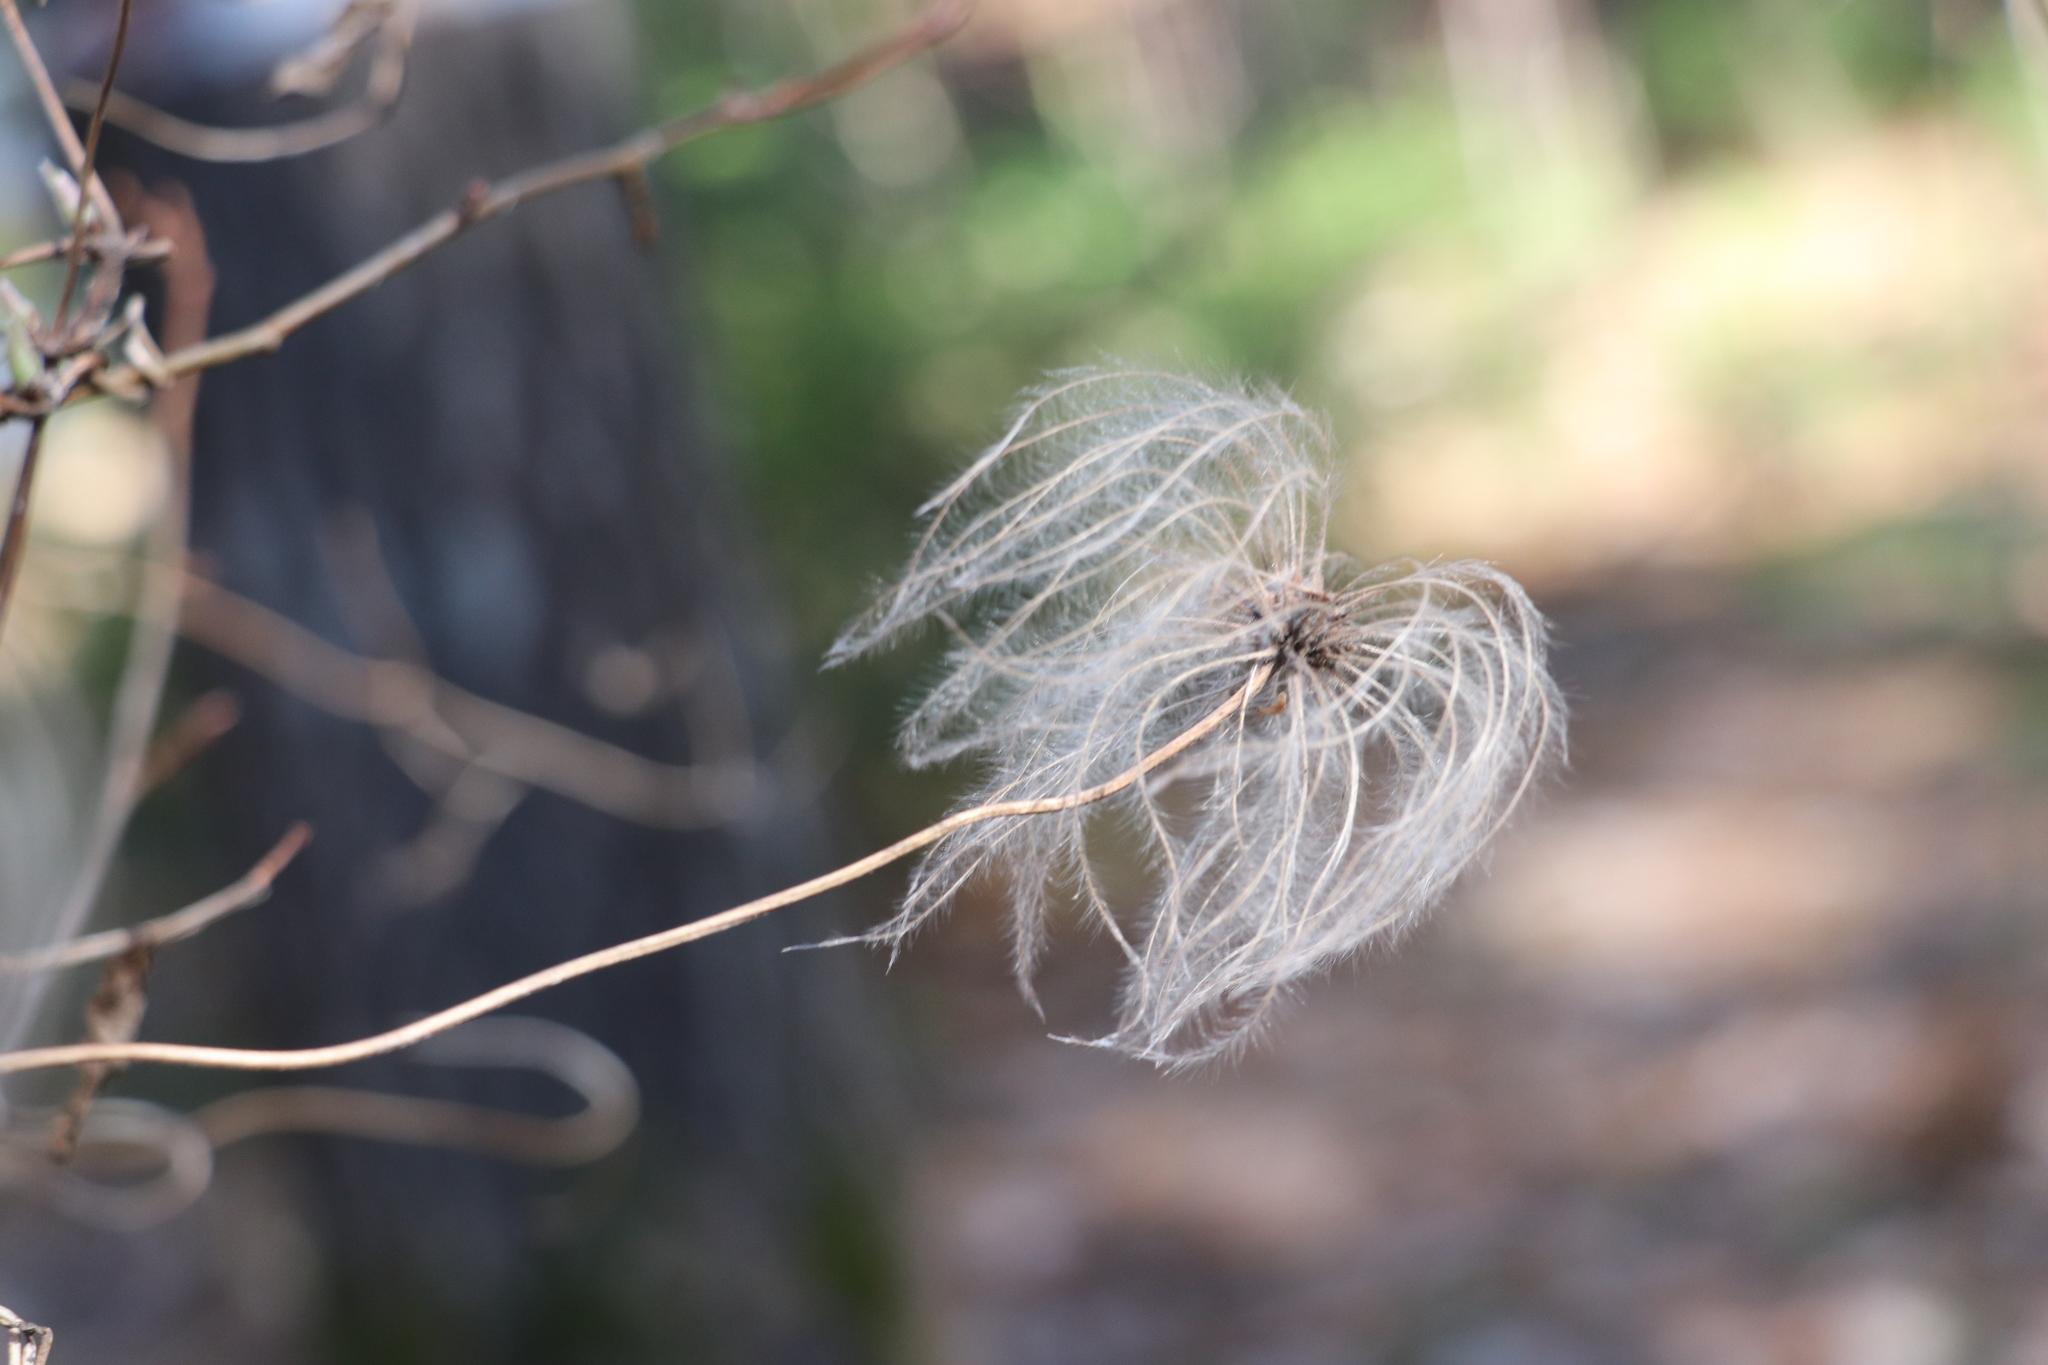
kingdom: Plantae
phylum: Tracheophyta
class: Magnoliopsida
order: Ranunculales
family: Ranunculaceae
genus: Clematis
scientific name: Clematis sibirica
